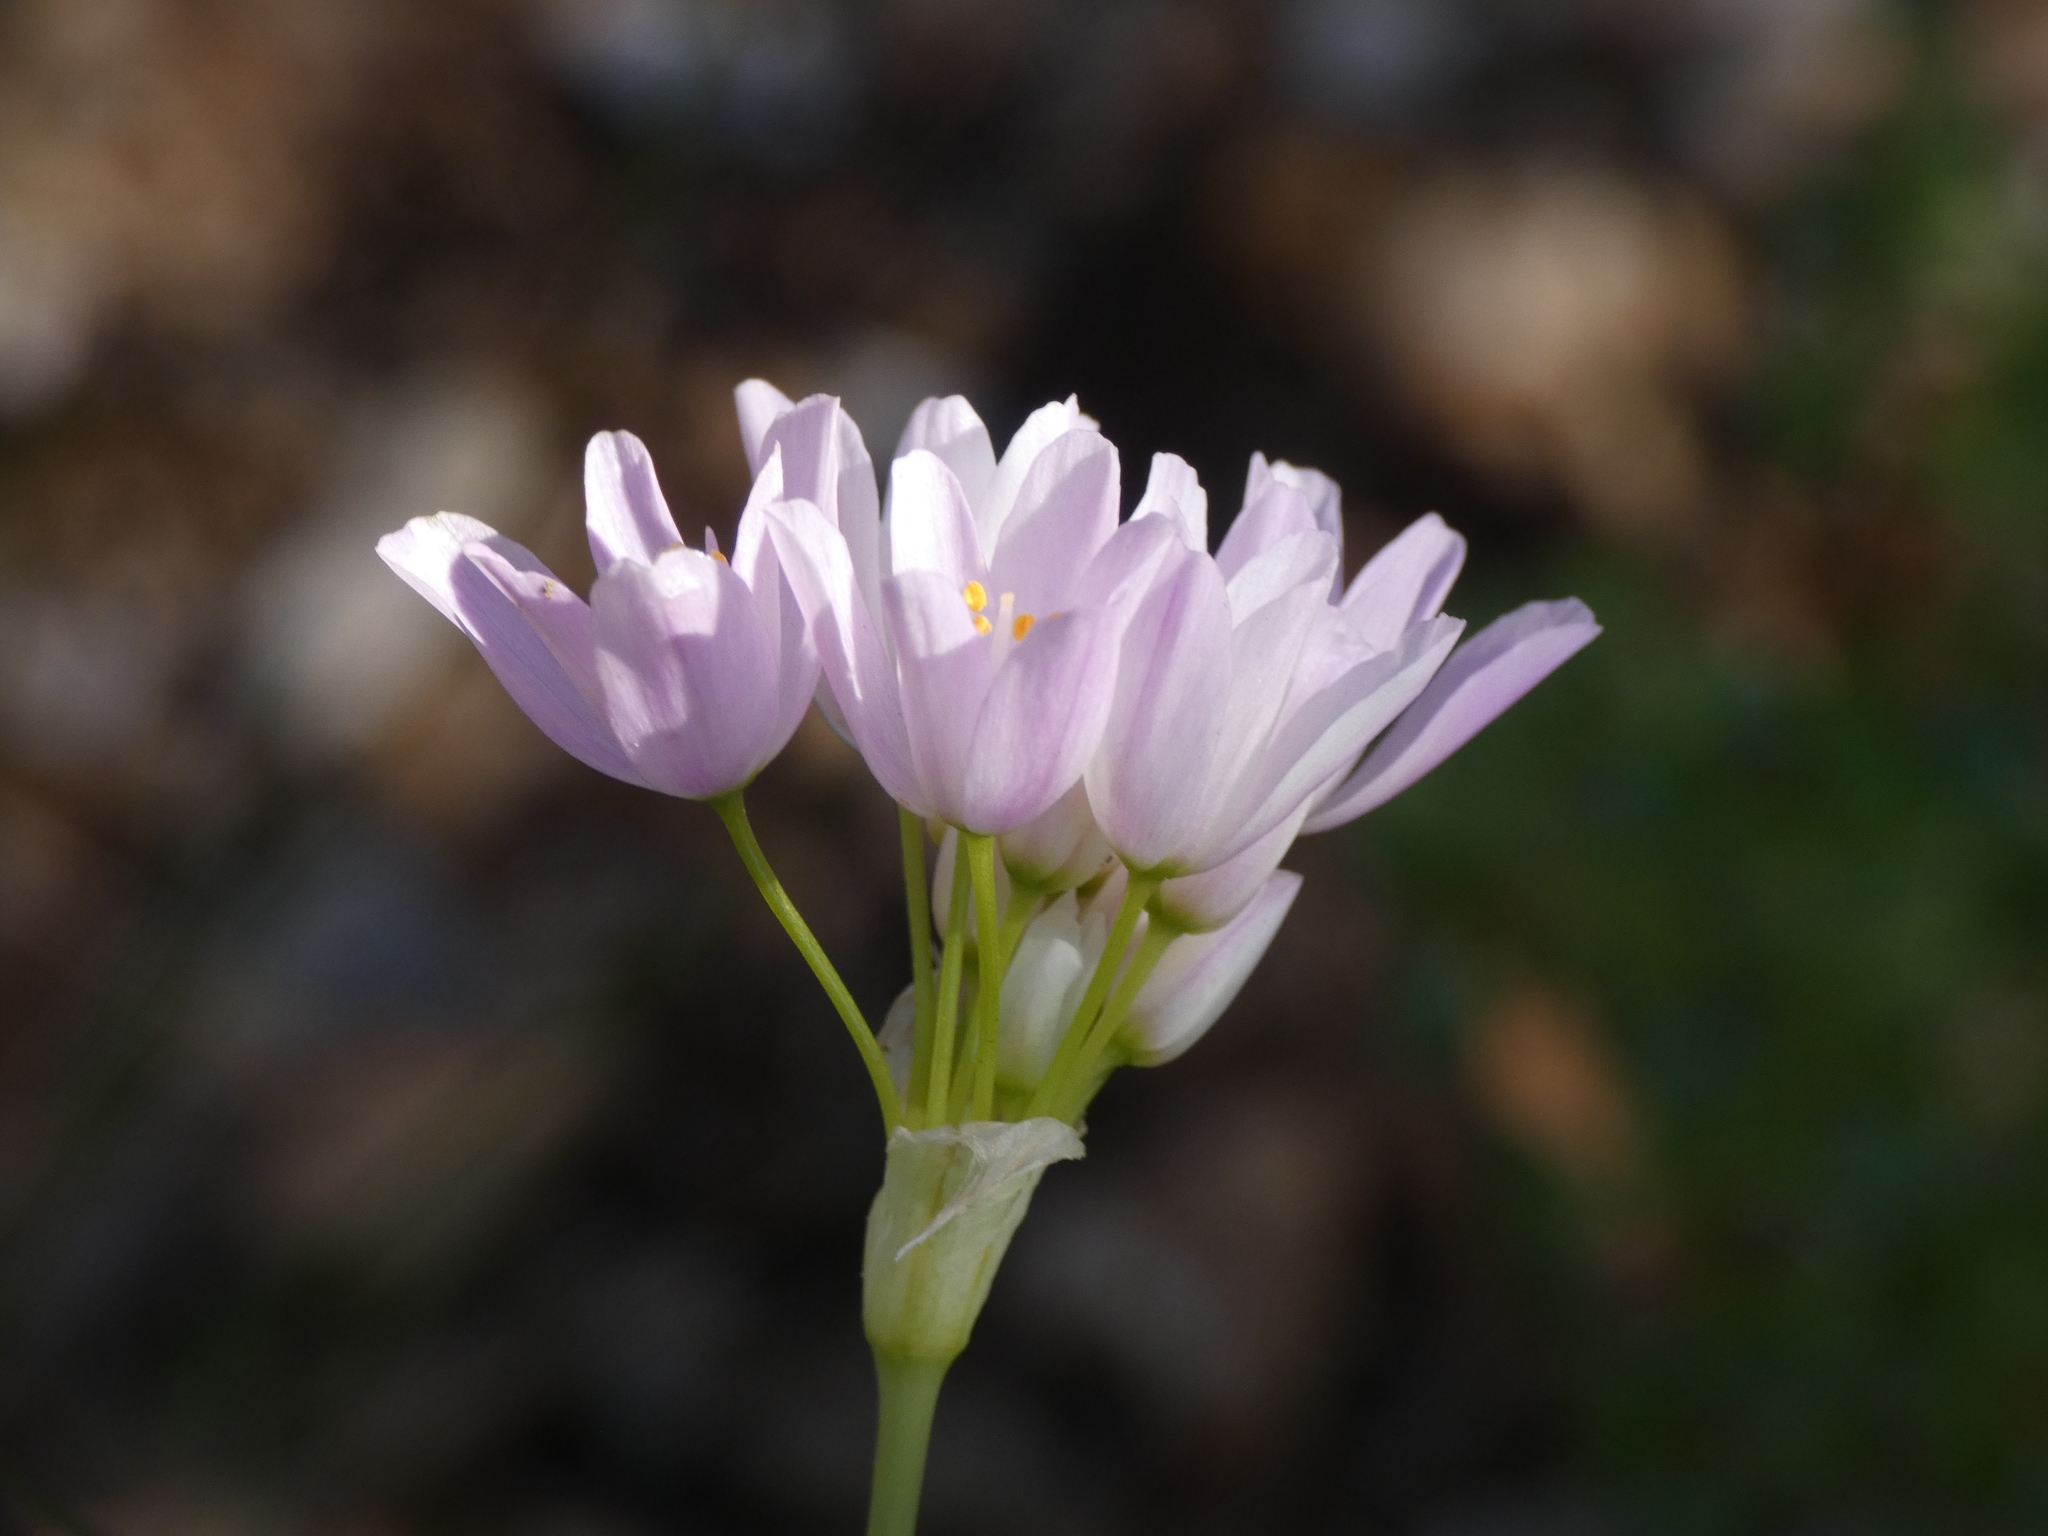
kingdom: Plantae
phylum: Tracheophyta
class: Liliopsida
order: Asparagales
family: Amaryllidaceae
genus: Allium
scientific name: Allium roseum
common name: Rosy garlic
